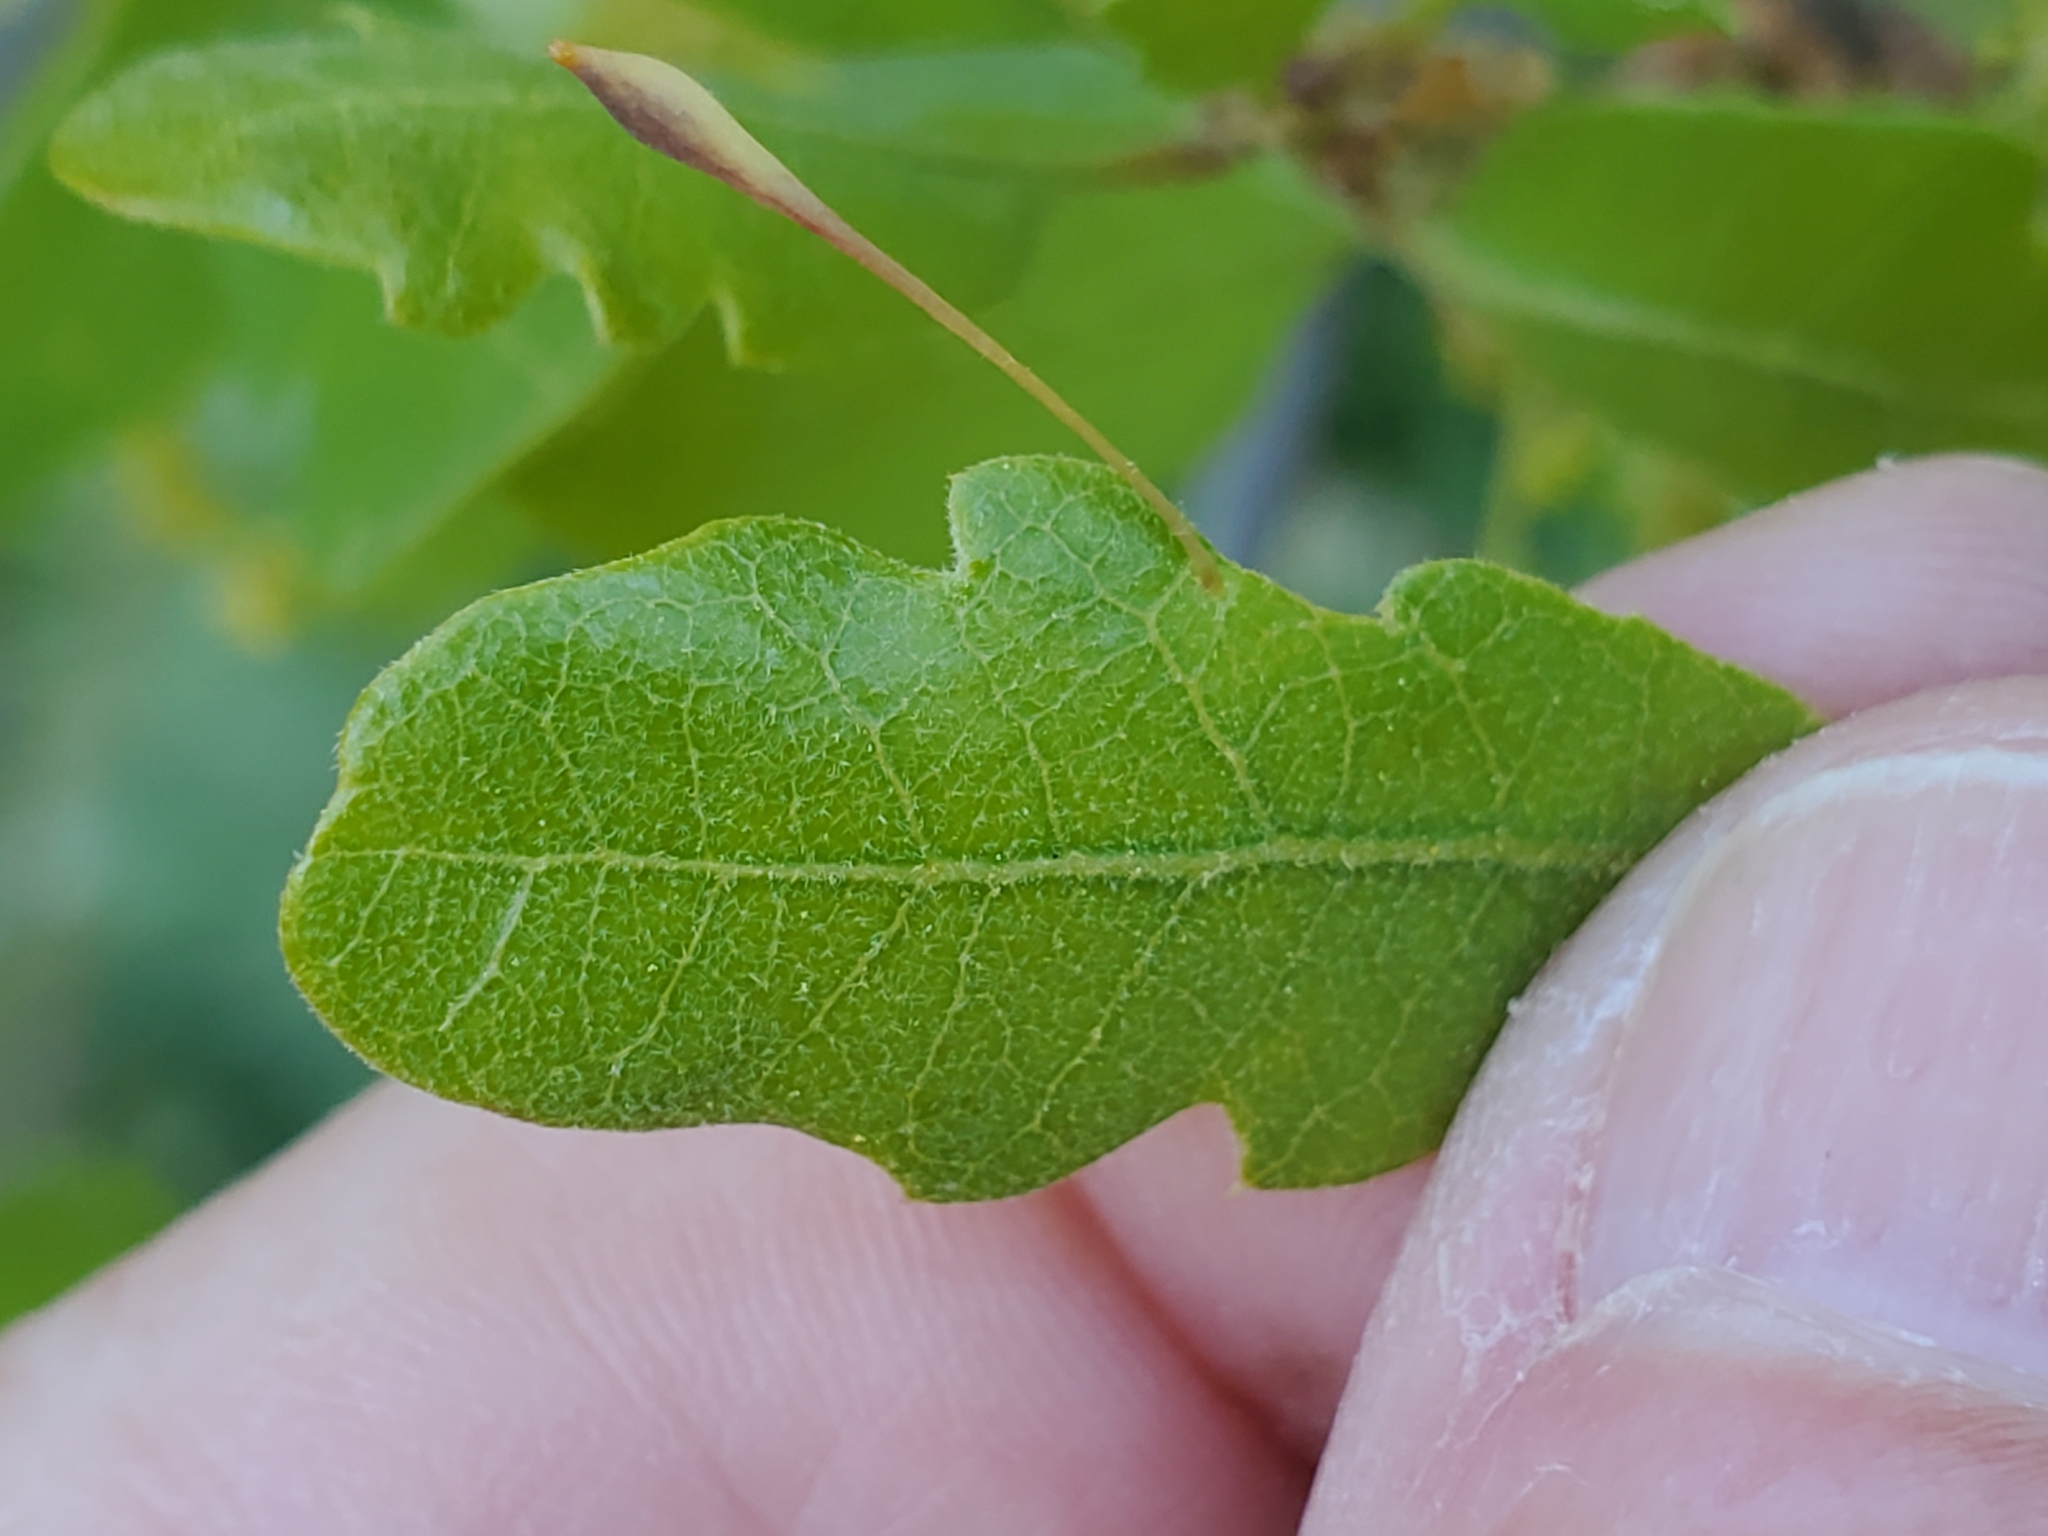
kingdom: Animalia
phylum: Arthropoda
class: Insecta
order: Hymenoptera
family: Cynipidae
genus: Andricus
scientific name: Andricus
